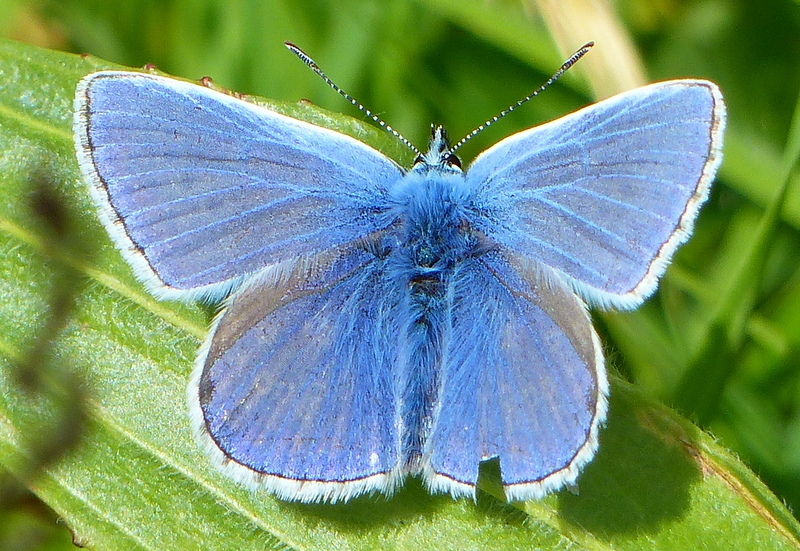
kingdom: Animalia
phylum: Arthropoda
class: Insecta
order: Lepidoptera
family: Lycaenidae
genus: Polyommatus
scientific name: Polyommatus icarus
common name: Common blue
